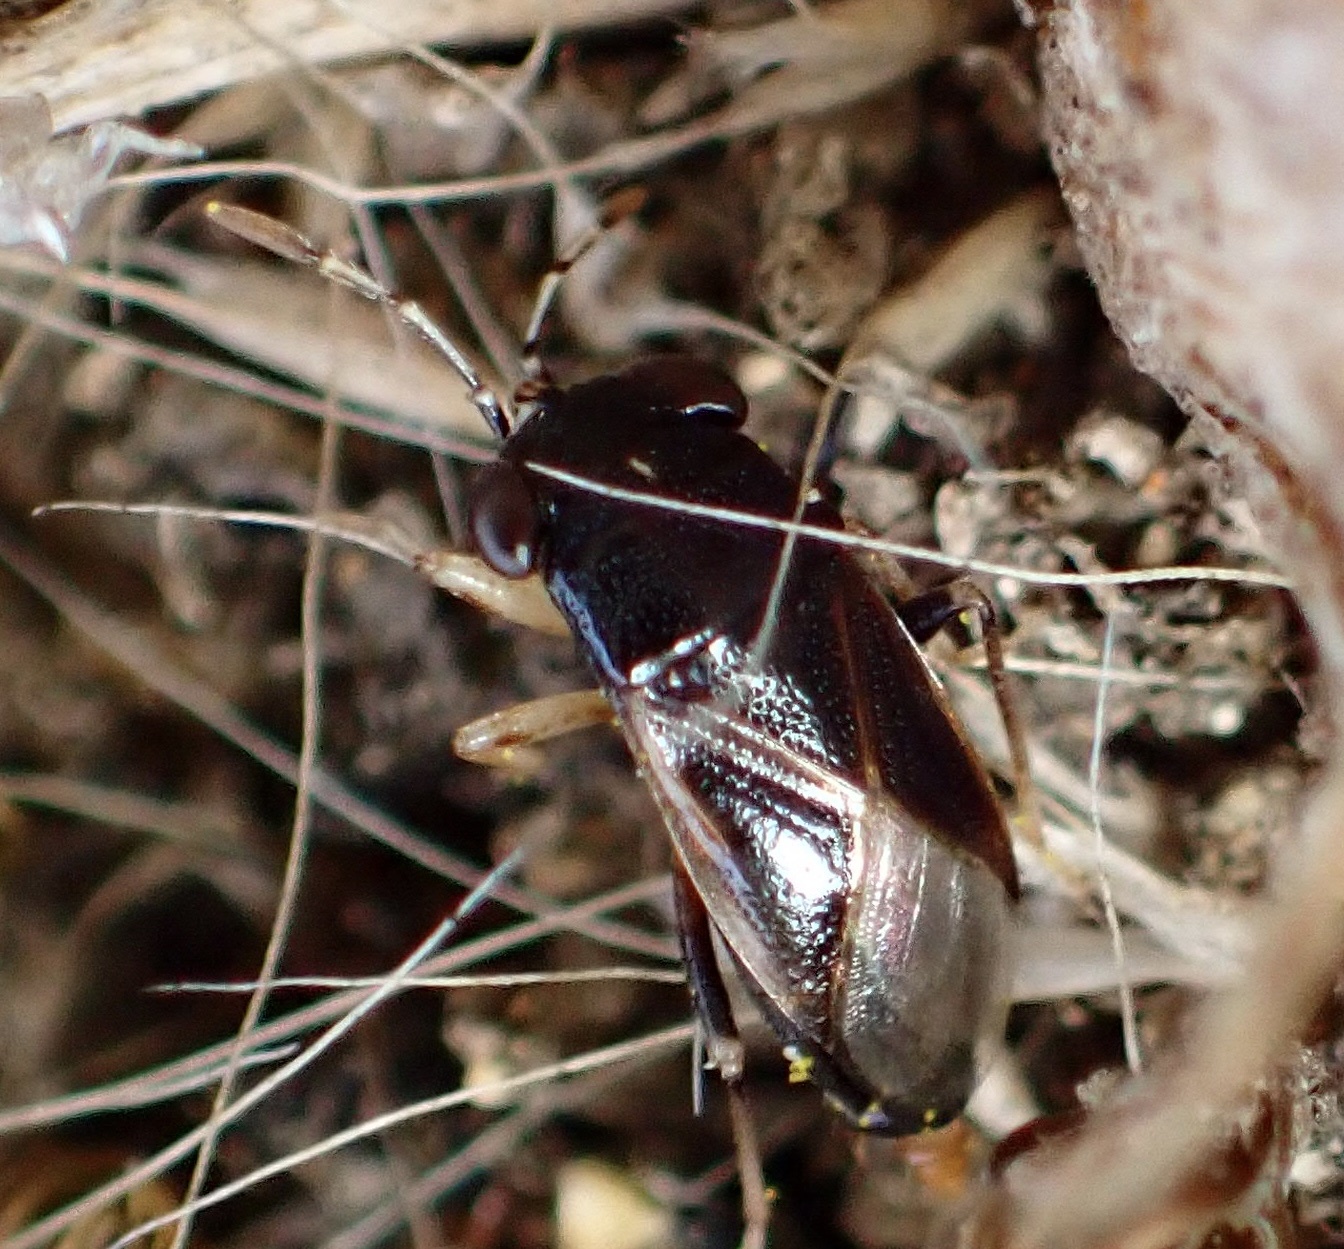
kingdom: Animalia
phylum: Arthropoda
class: Insecta
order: Hemiptera
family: Geocoridae
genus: Geocoris
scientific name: Geocoris uliginosus
